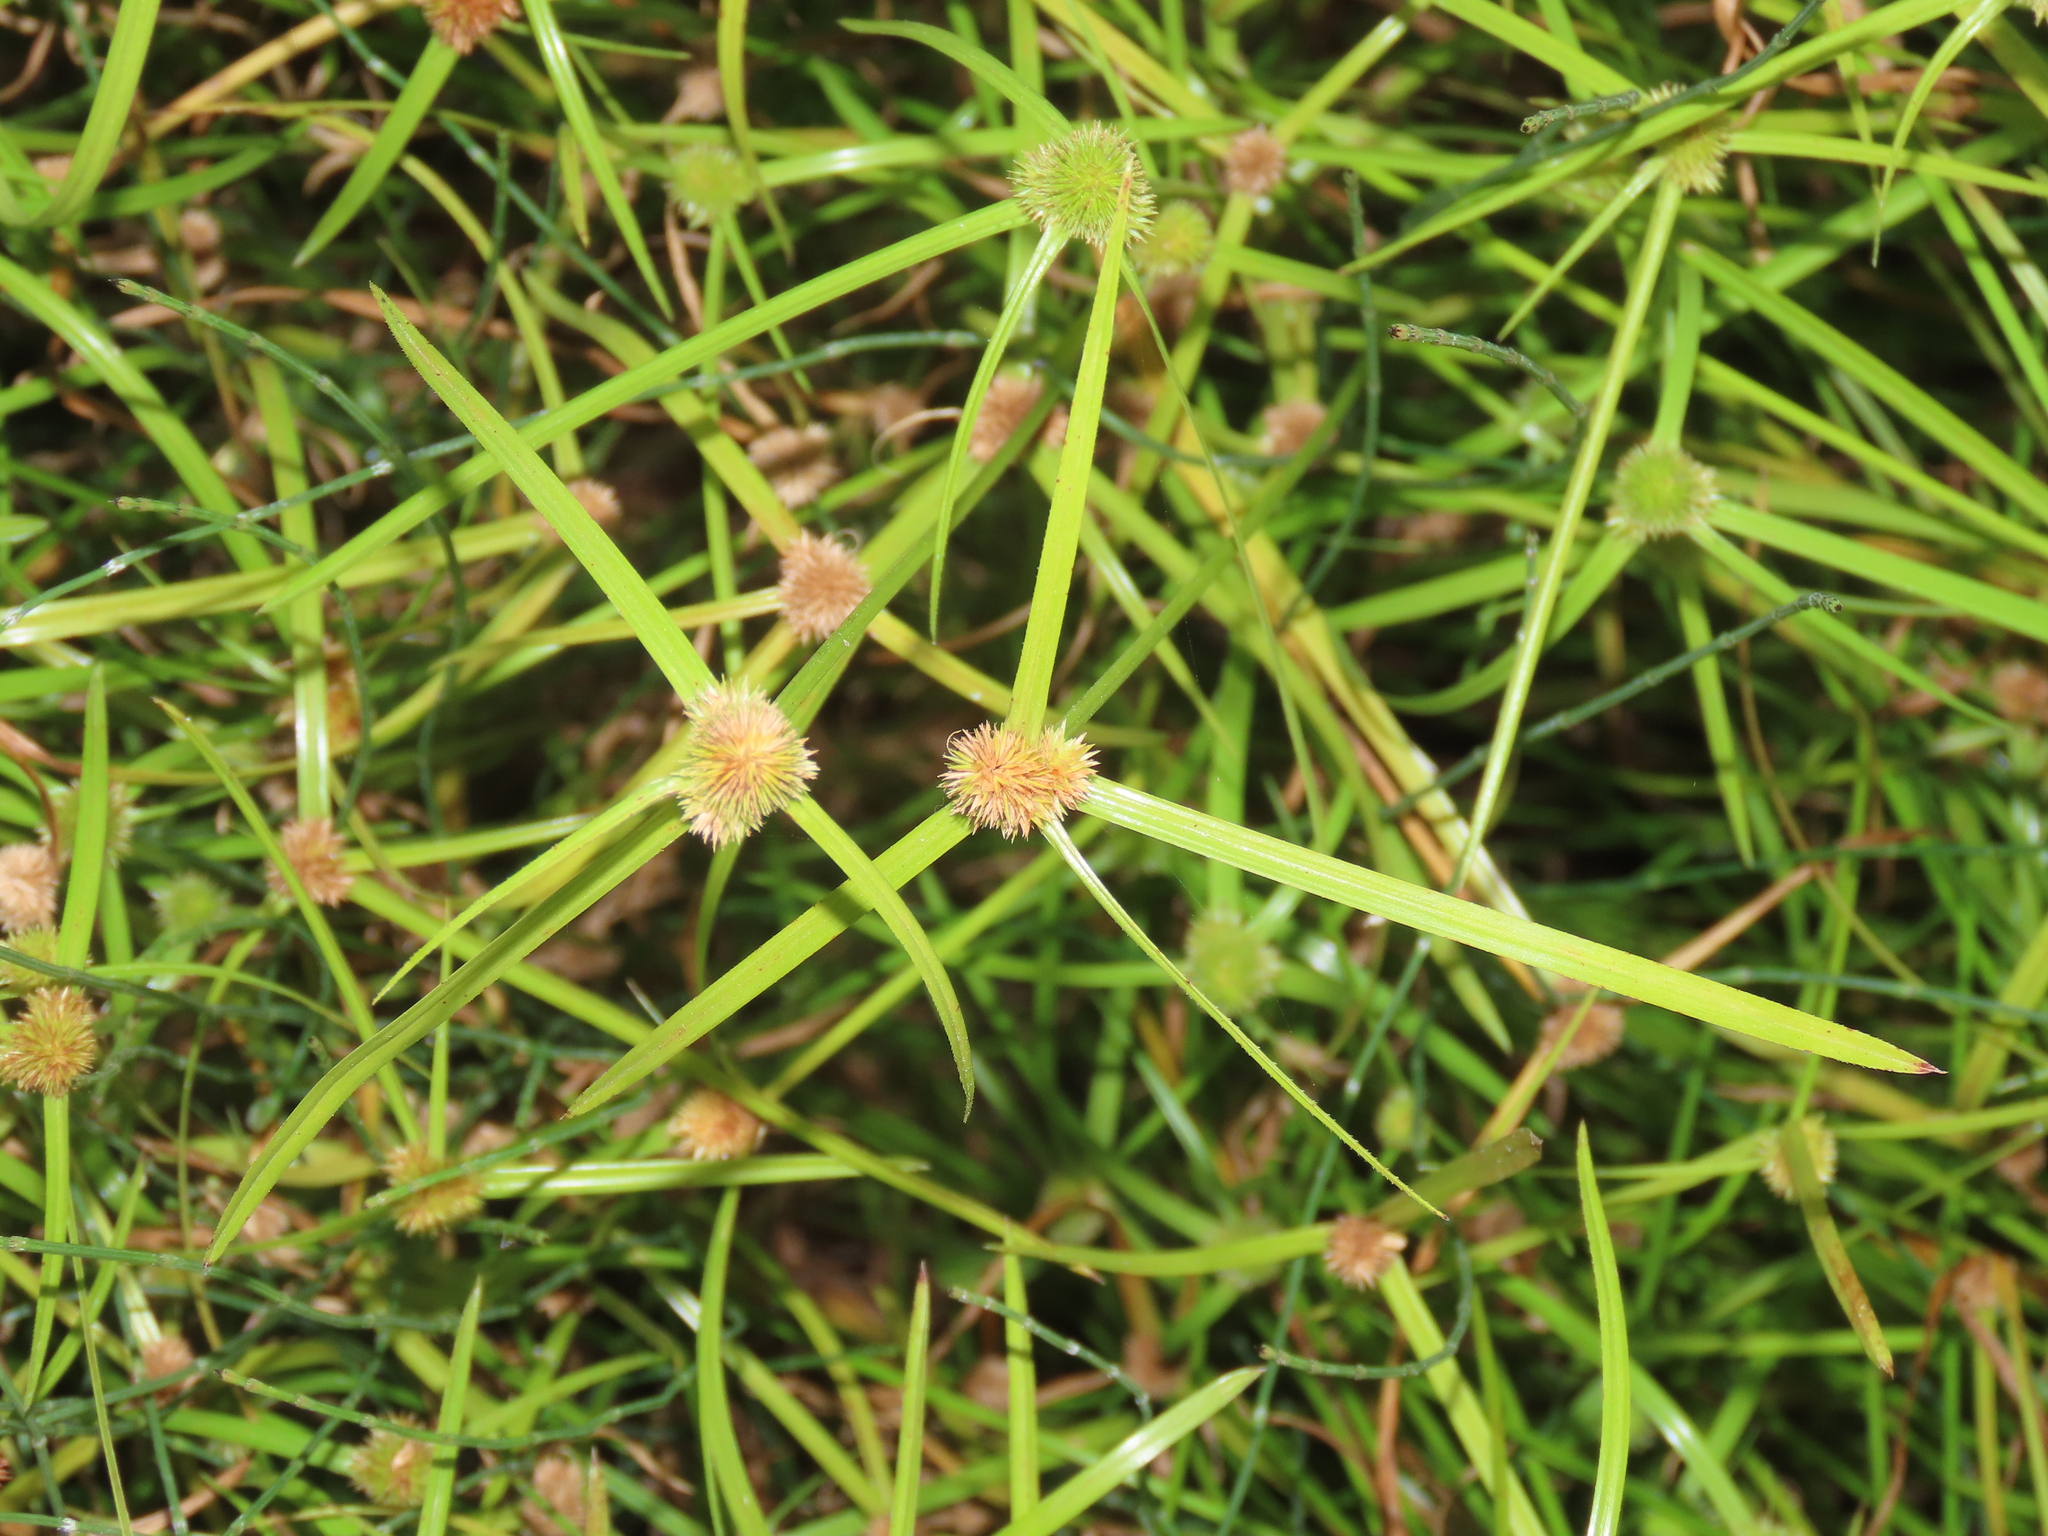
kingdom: Plantae
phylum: Tracheophyta
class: Liliopsida
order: Poales
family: Cyperaceae
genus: Cyperus
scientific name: Cyperus brevifolius
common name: Globe kyllinga
